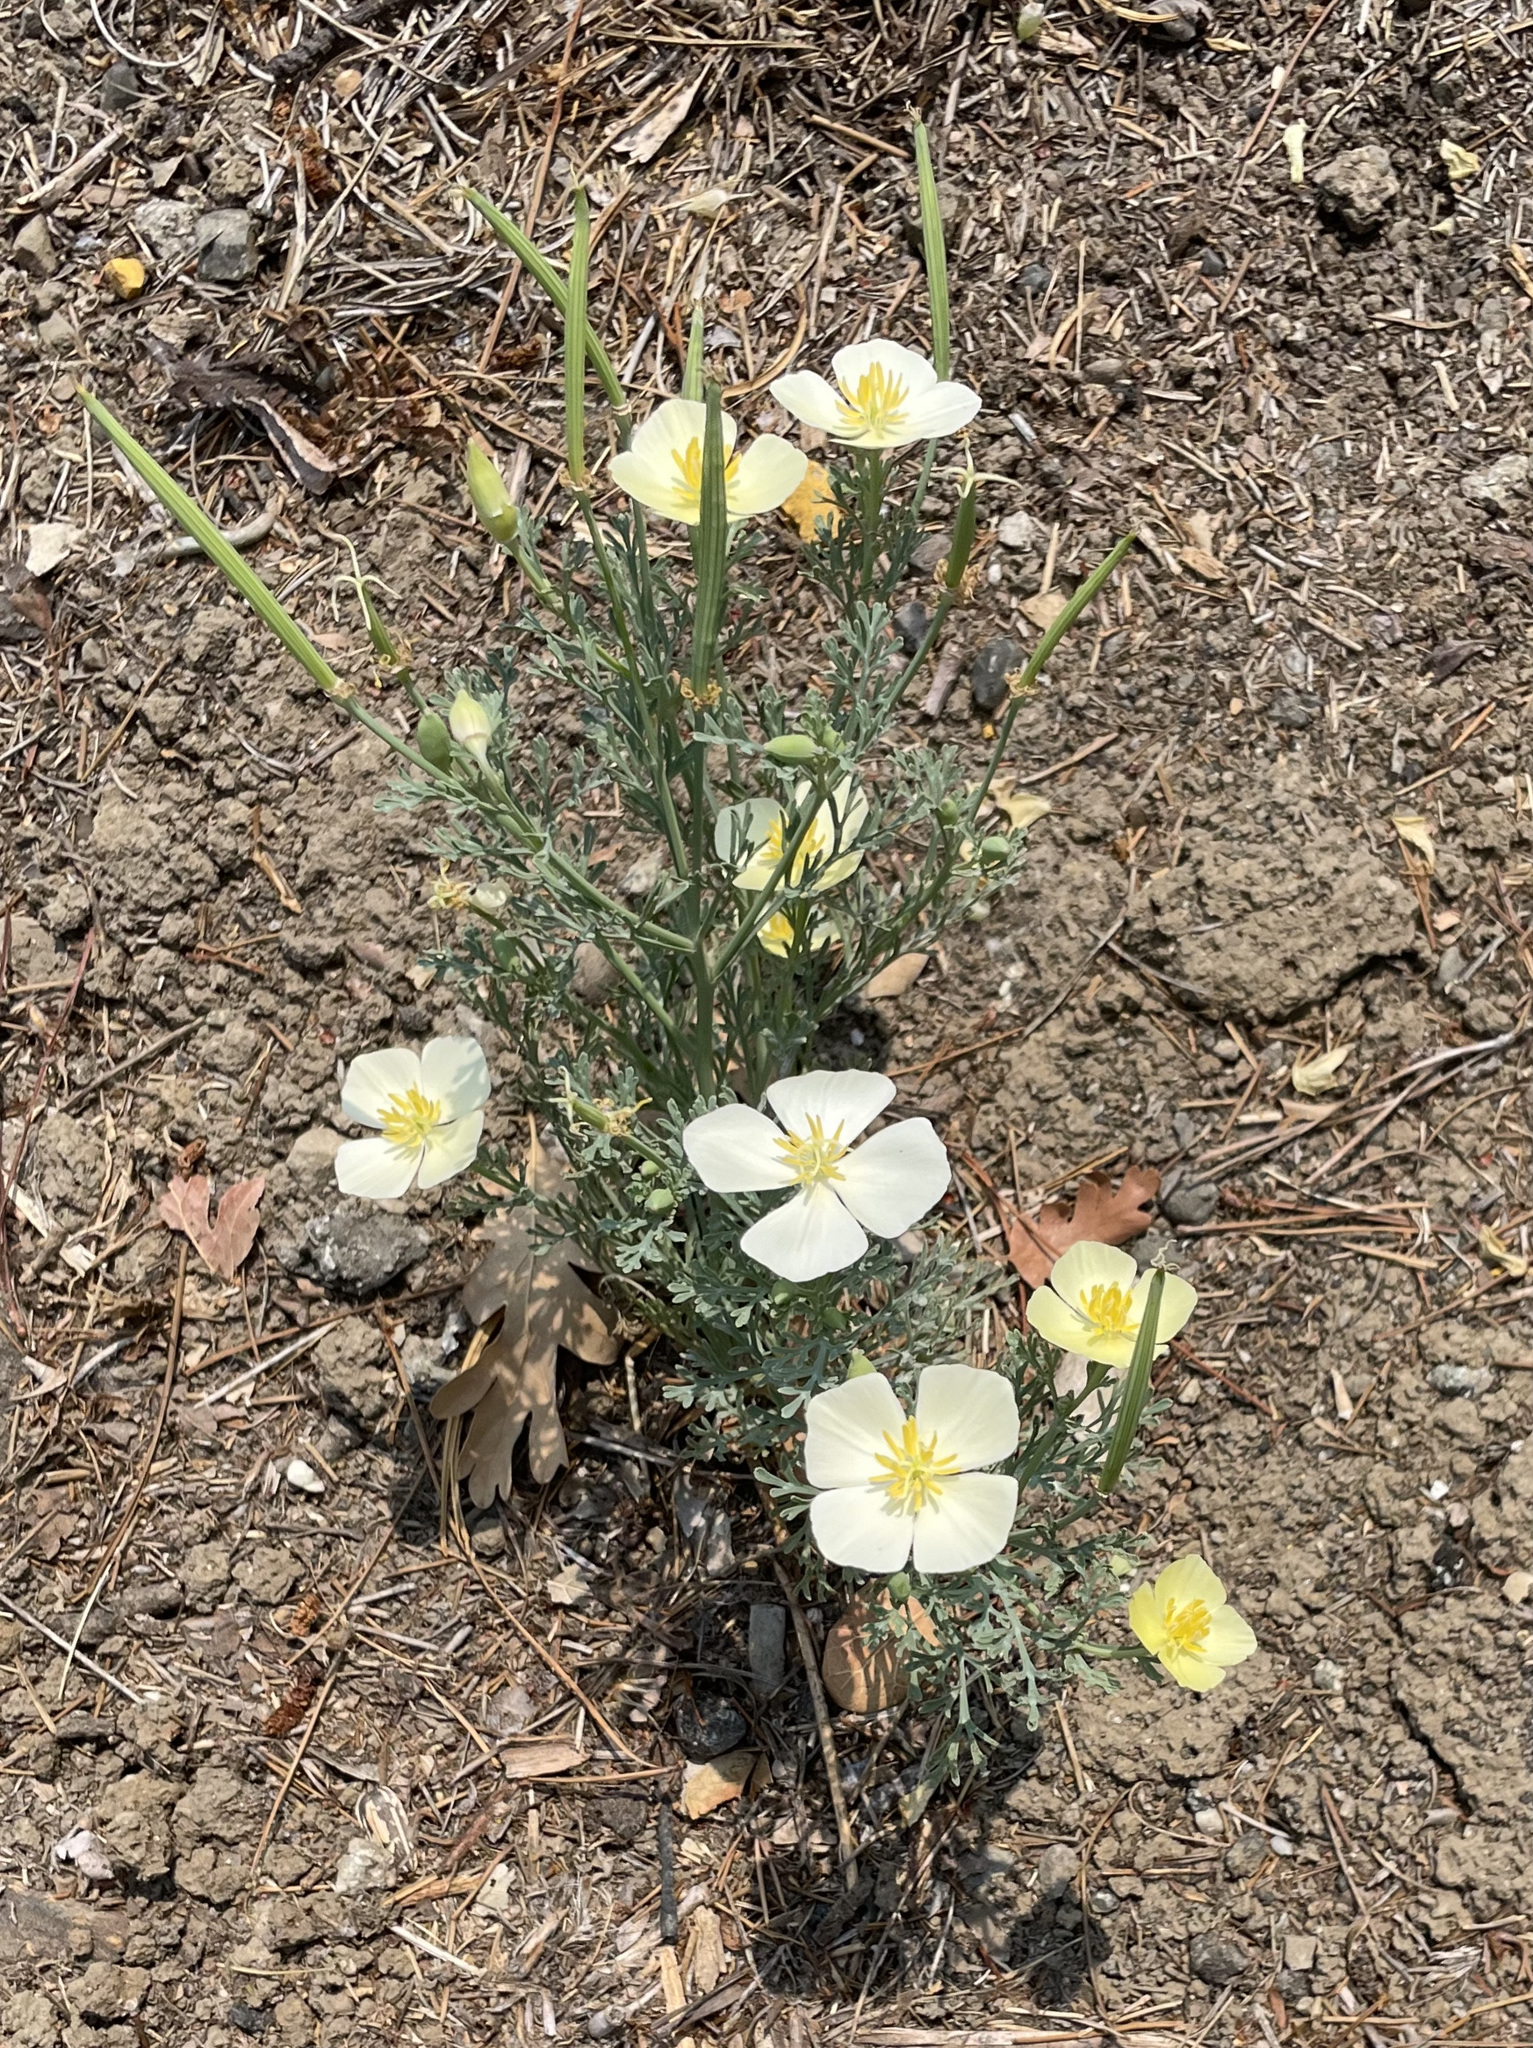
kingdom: Plantae
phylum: Tracheophyta
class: Magnoliopsida
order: Ranunculales
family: Papaveraceae
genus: Eschscholzia
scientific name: Eschscholzia californica
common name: California poppy
